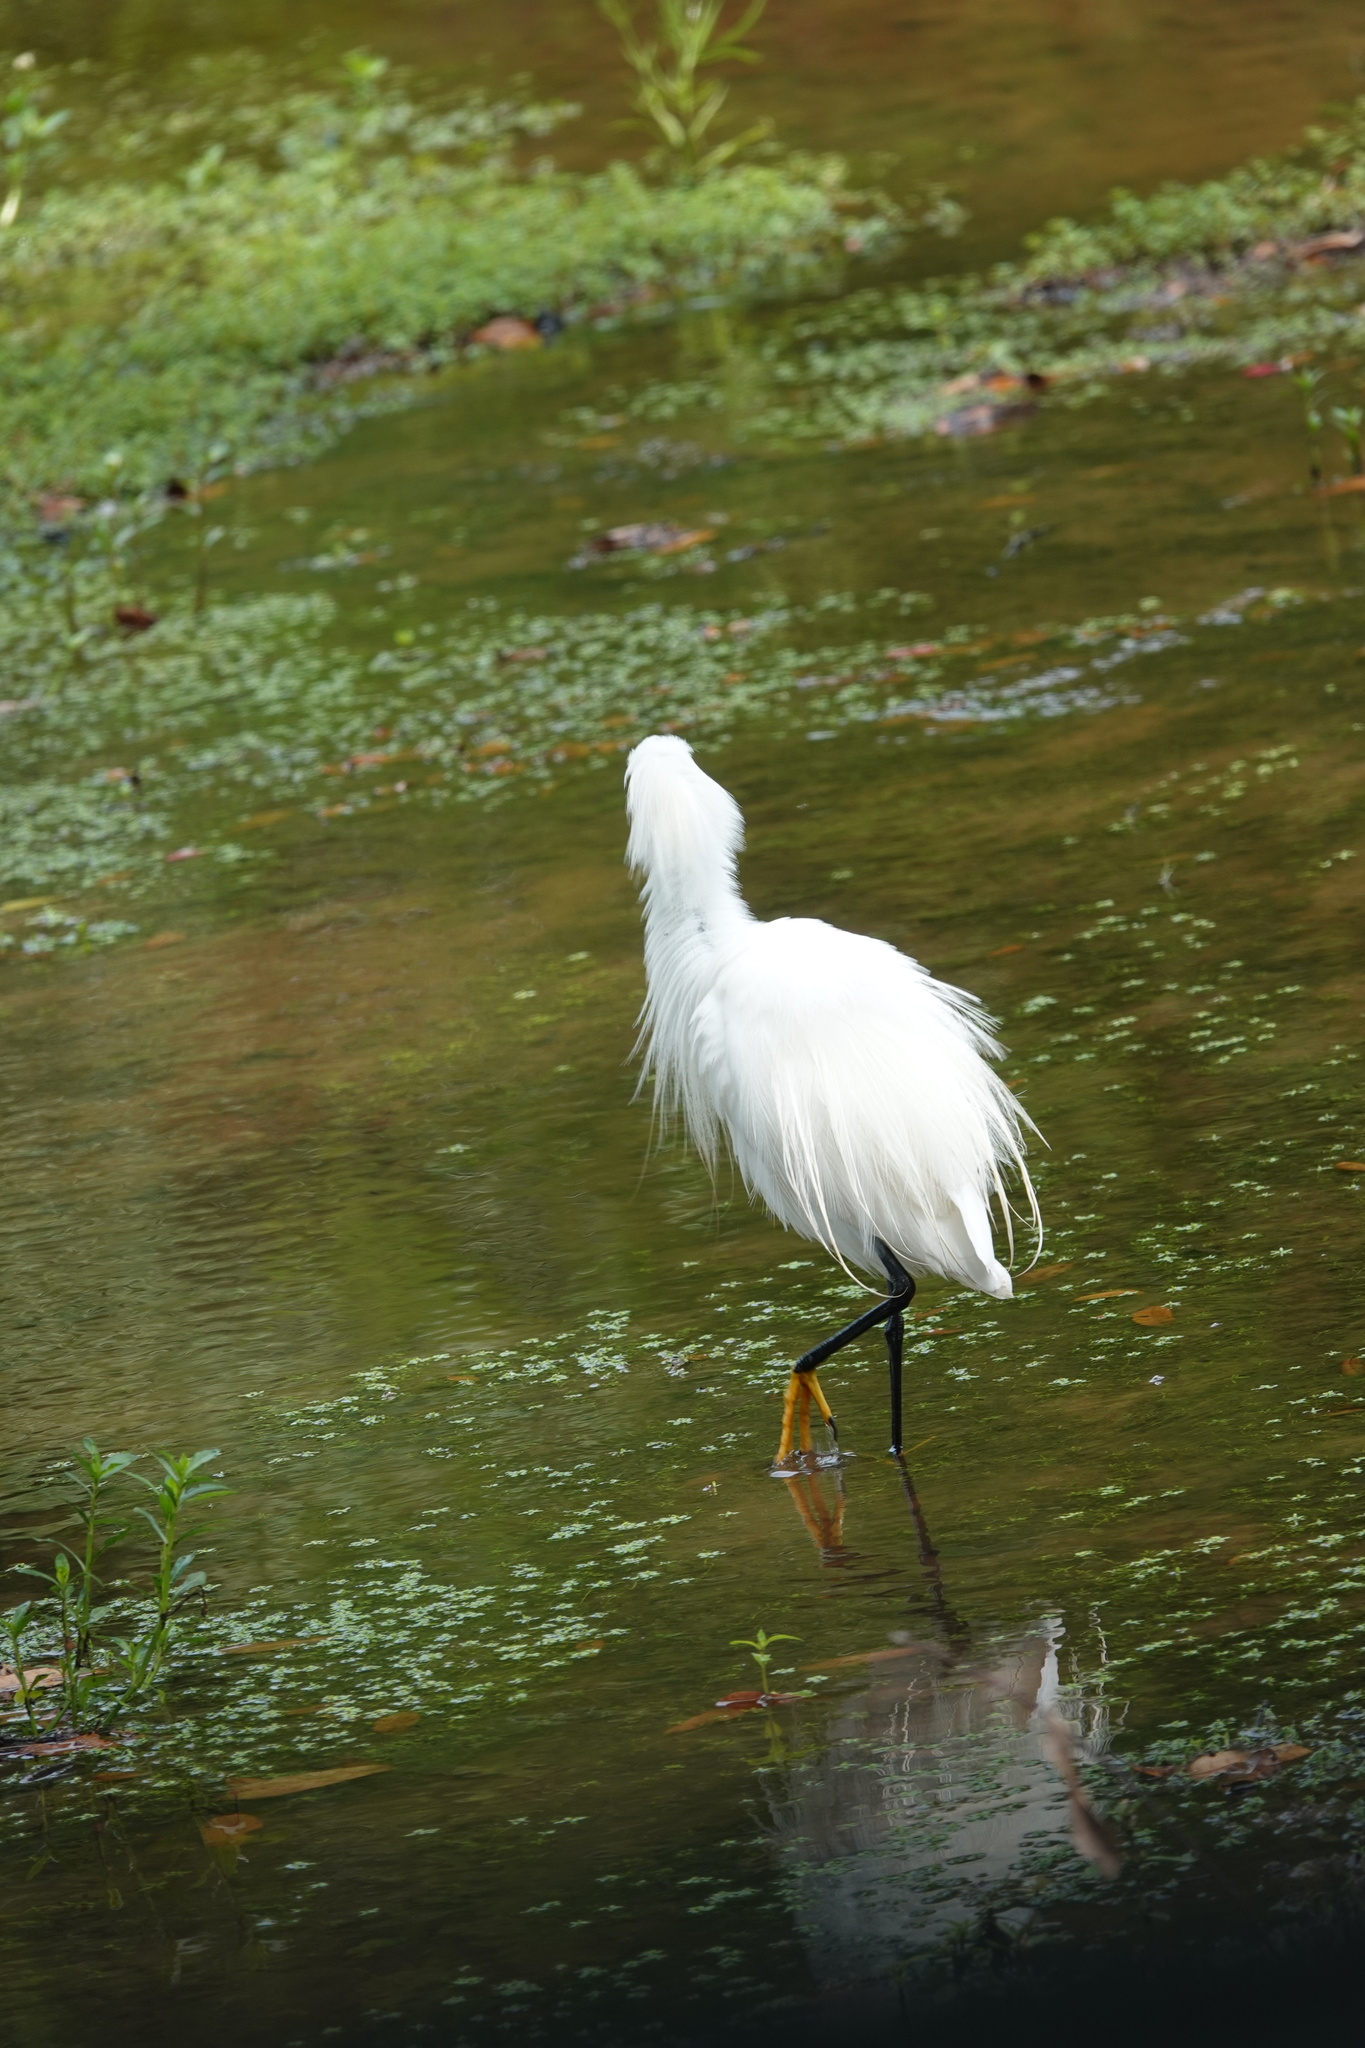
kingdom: Animalia
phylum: Chordata
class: Aves
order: Pelecaniformes
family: Ardeidae
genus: Egretta
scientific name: Egretta thula
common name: Snowy egret
